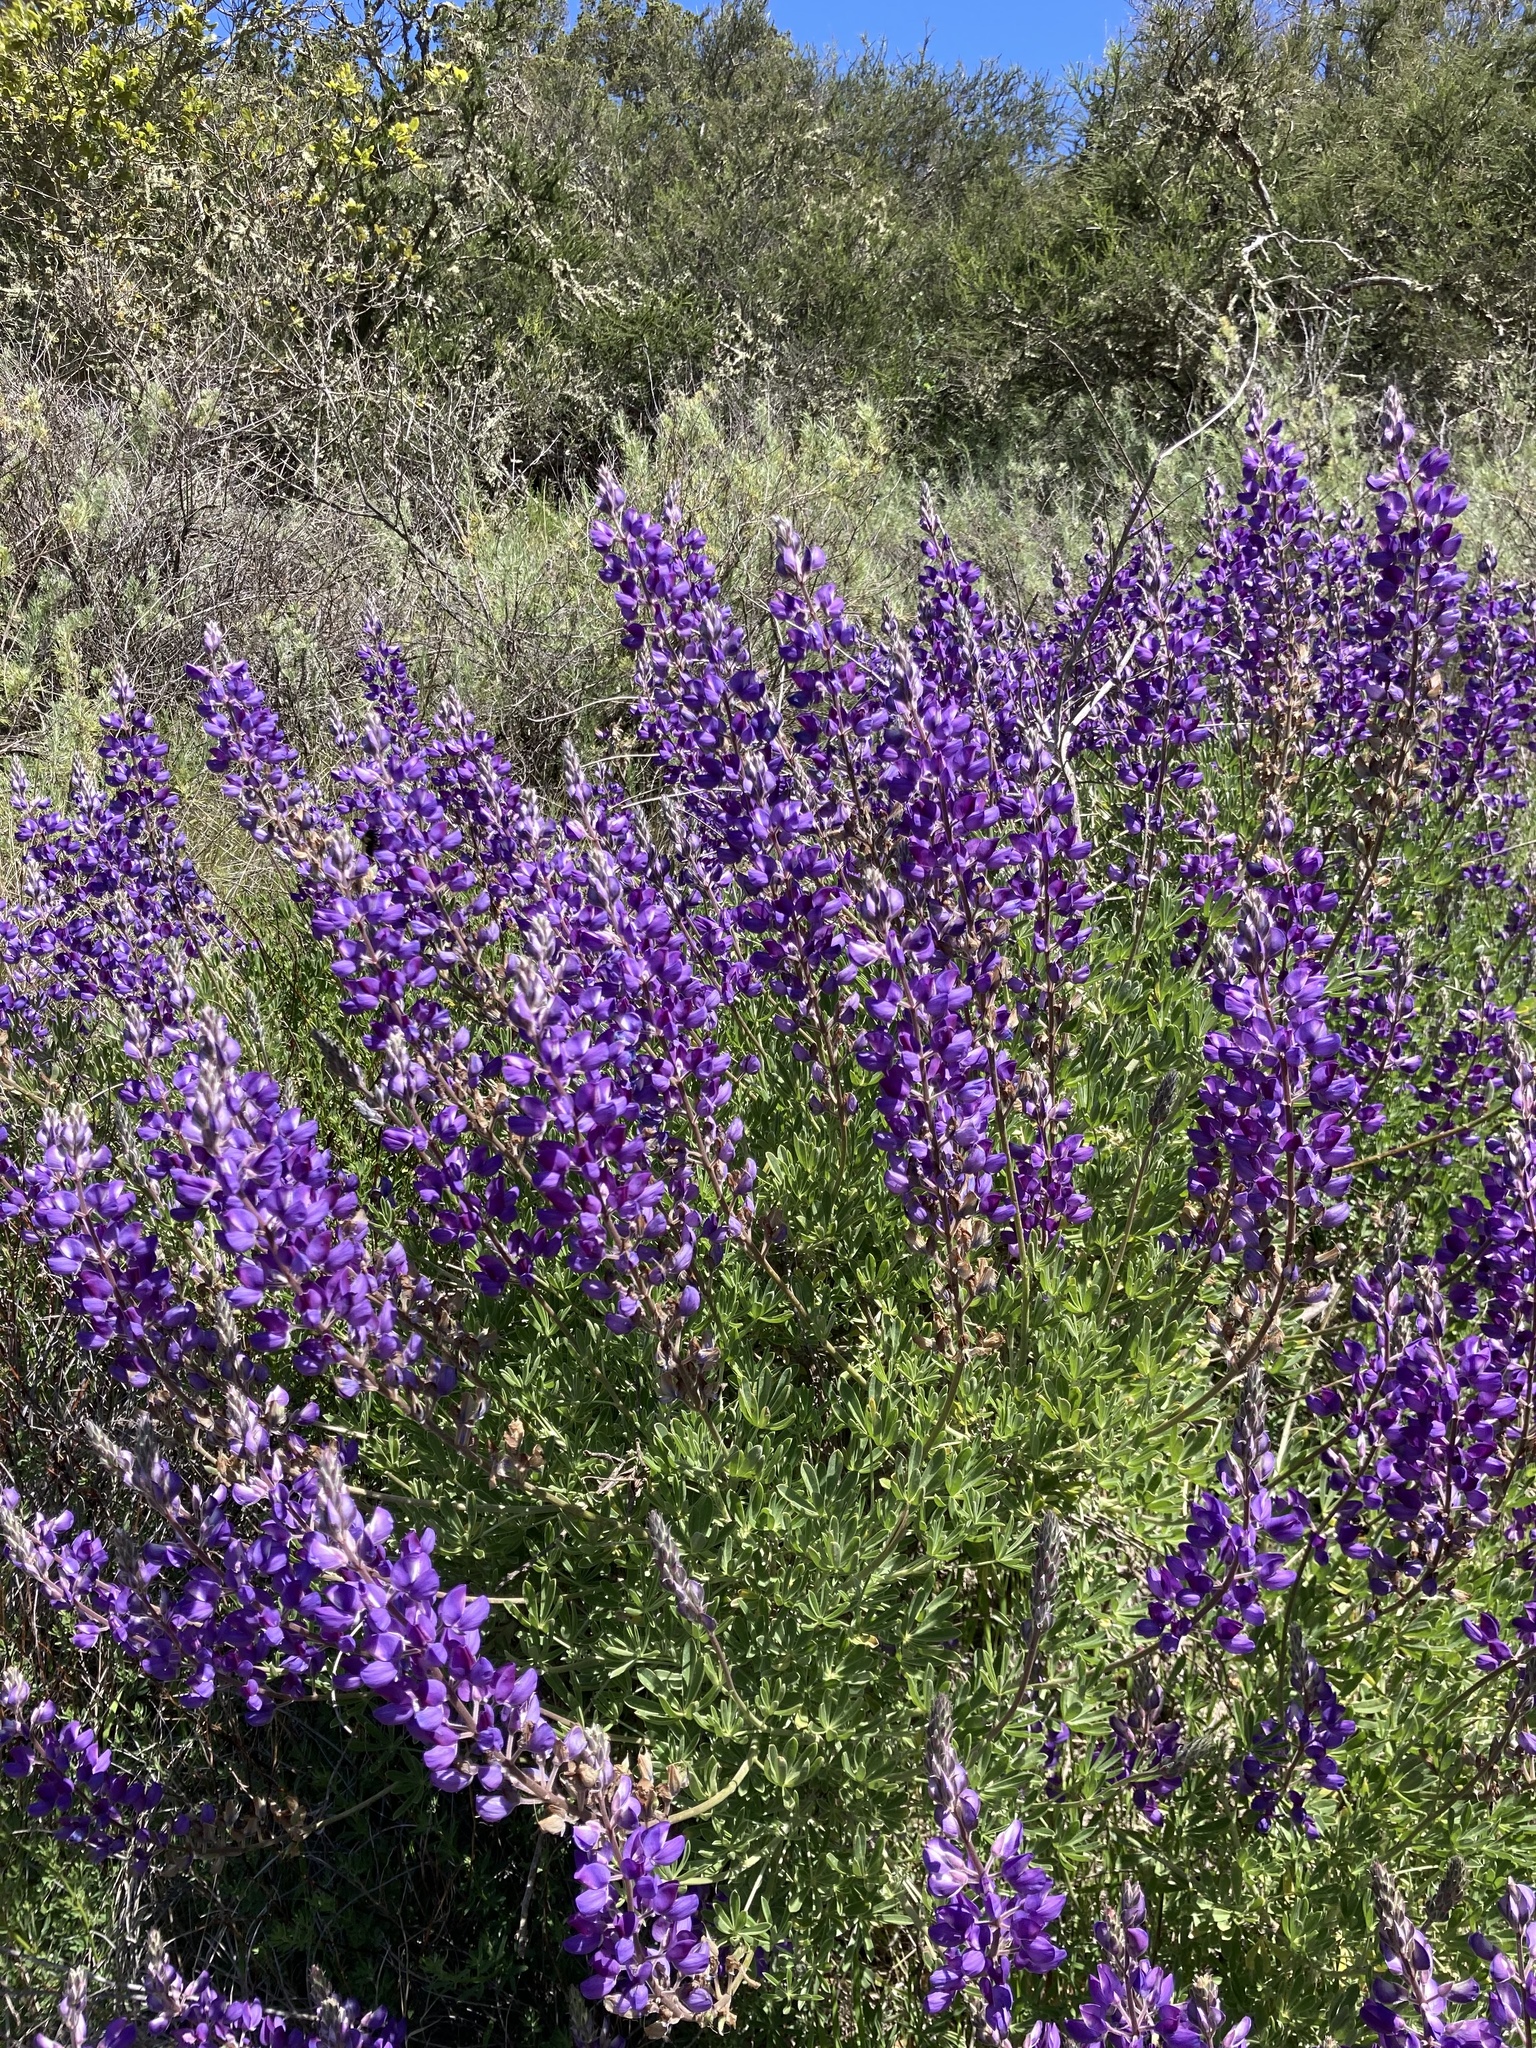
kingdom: Plantae
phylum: Tracheophyta
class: Magnoliopsida
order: Fabales
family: Fabaceae
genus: Lupinus
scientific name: Lupinus albifrons
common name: Foothill lupine
